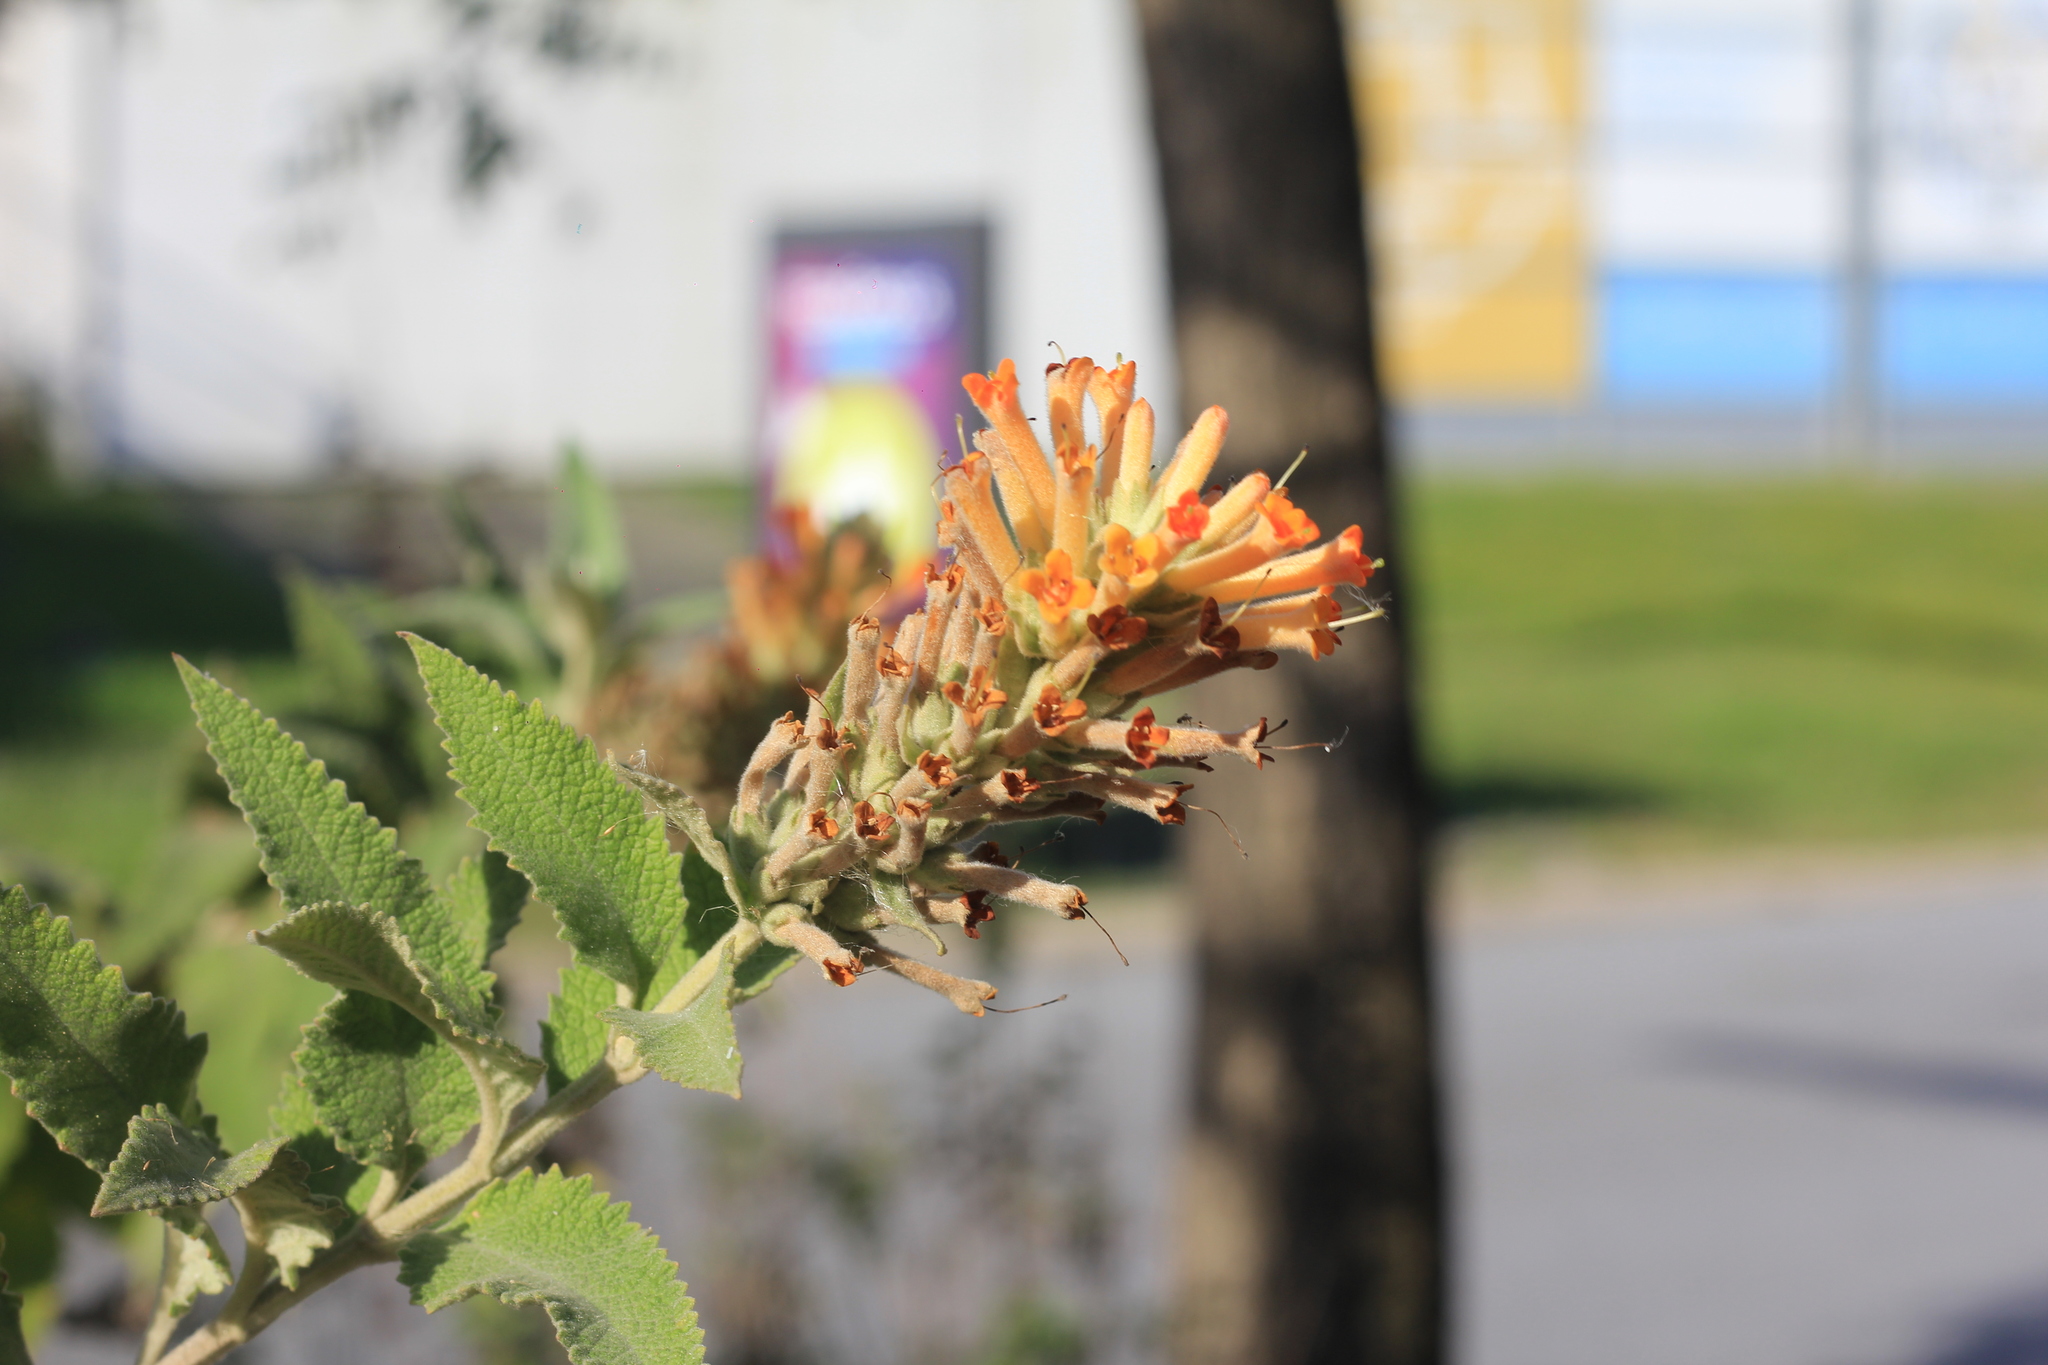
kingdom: Plantae
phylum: Tracheophyta
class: Magnoliopsida
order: Lamiales
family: Scrophulariaceae
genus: Buddleja
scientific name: Buddleja tubiflora
